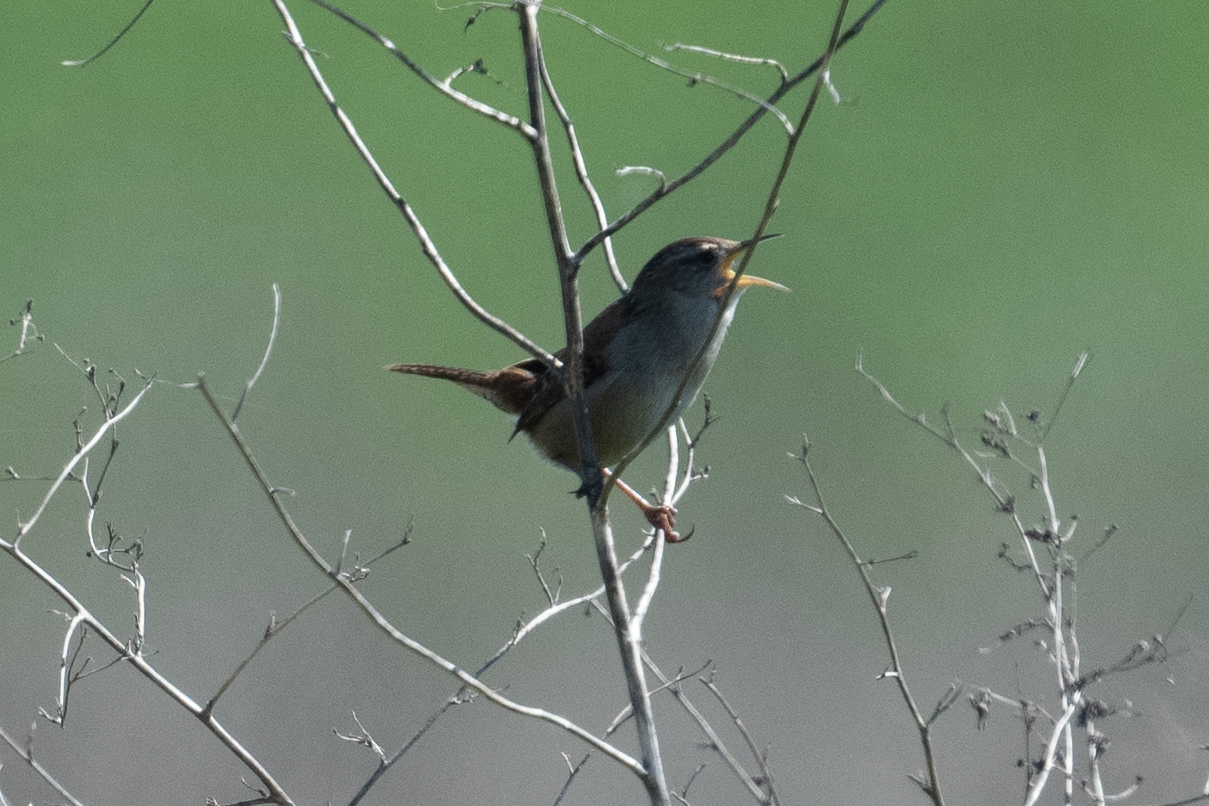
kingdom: Animalia
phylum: Chordata
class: Aves
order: Passeriformes
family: Troglodytidae
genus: Cistothorus
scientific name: Cistothorus palustris
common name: Marsh wren
